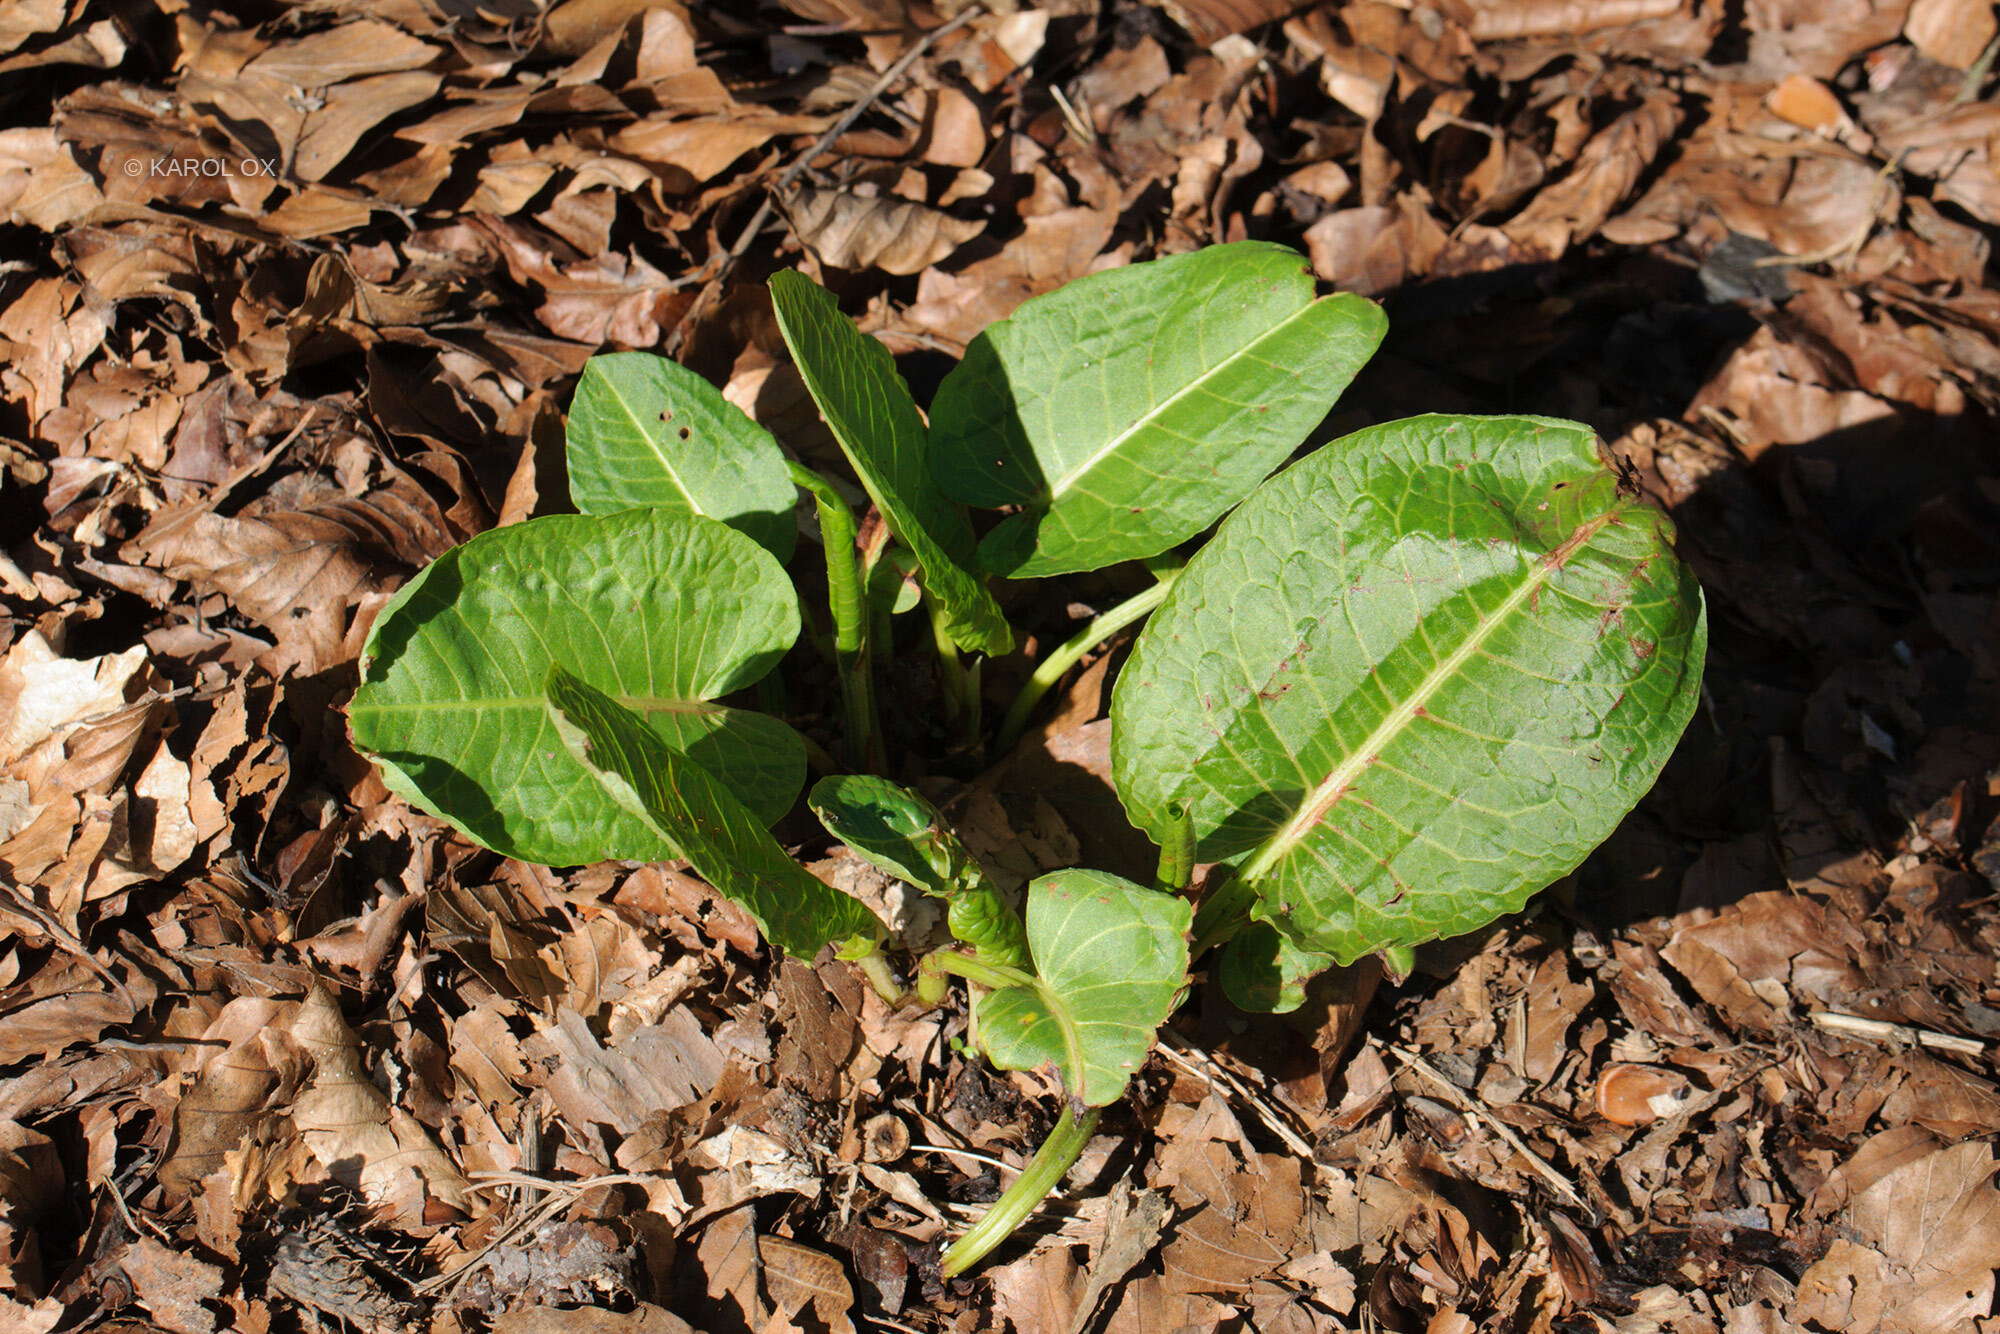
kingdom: Plantae
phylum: Tracheophyta
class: Magnoliopsida
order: Caryophyllales
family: Polygonaceae
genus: Rumex
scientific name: Rumex obtusifolius
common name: Bitter dock
